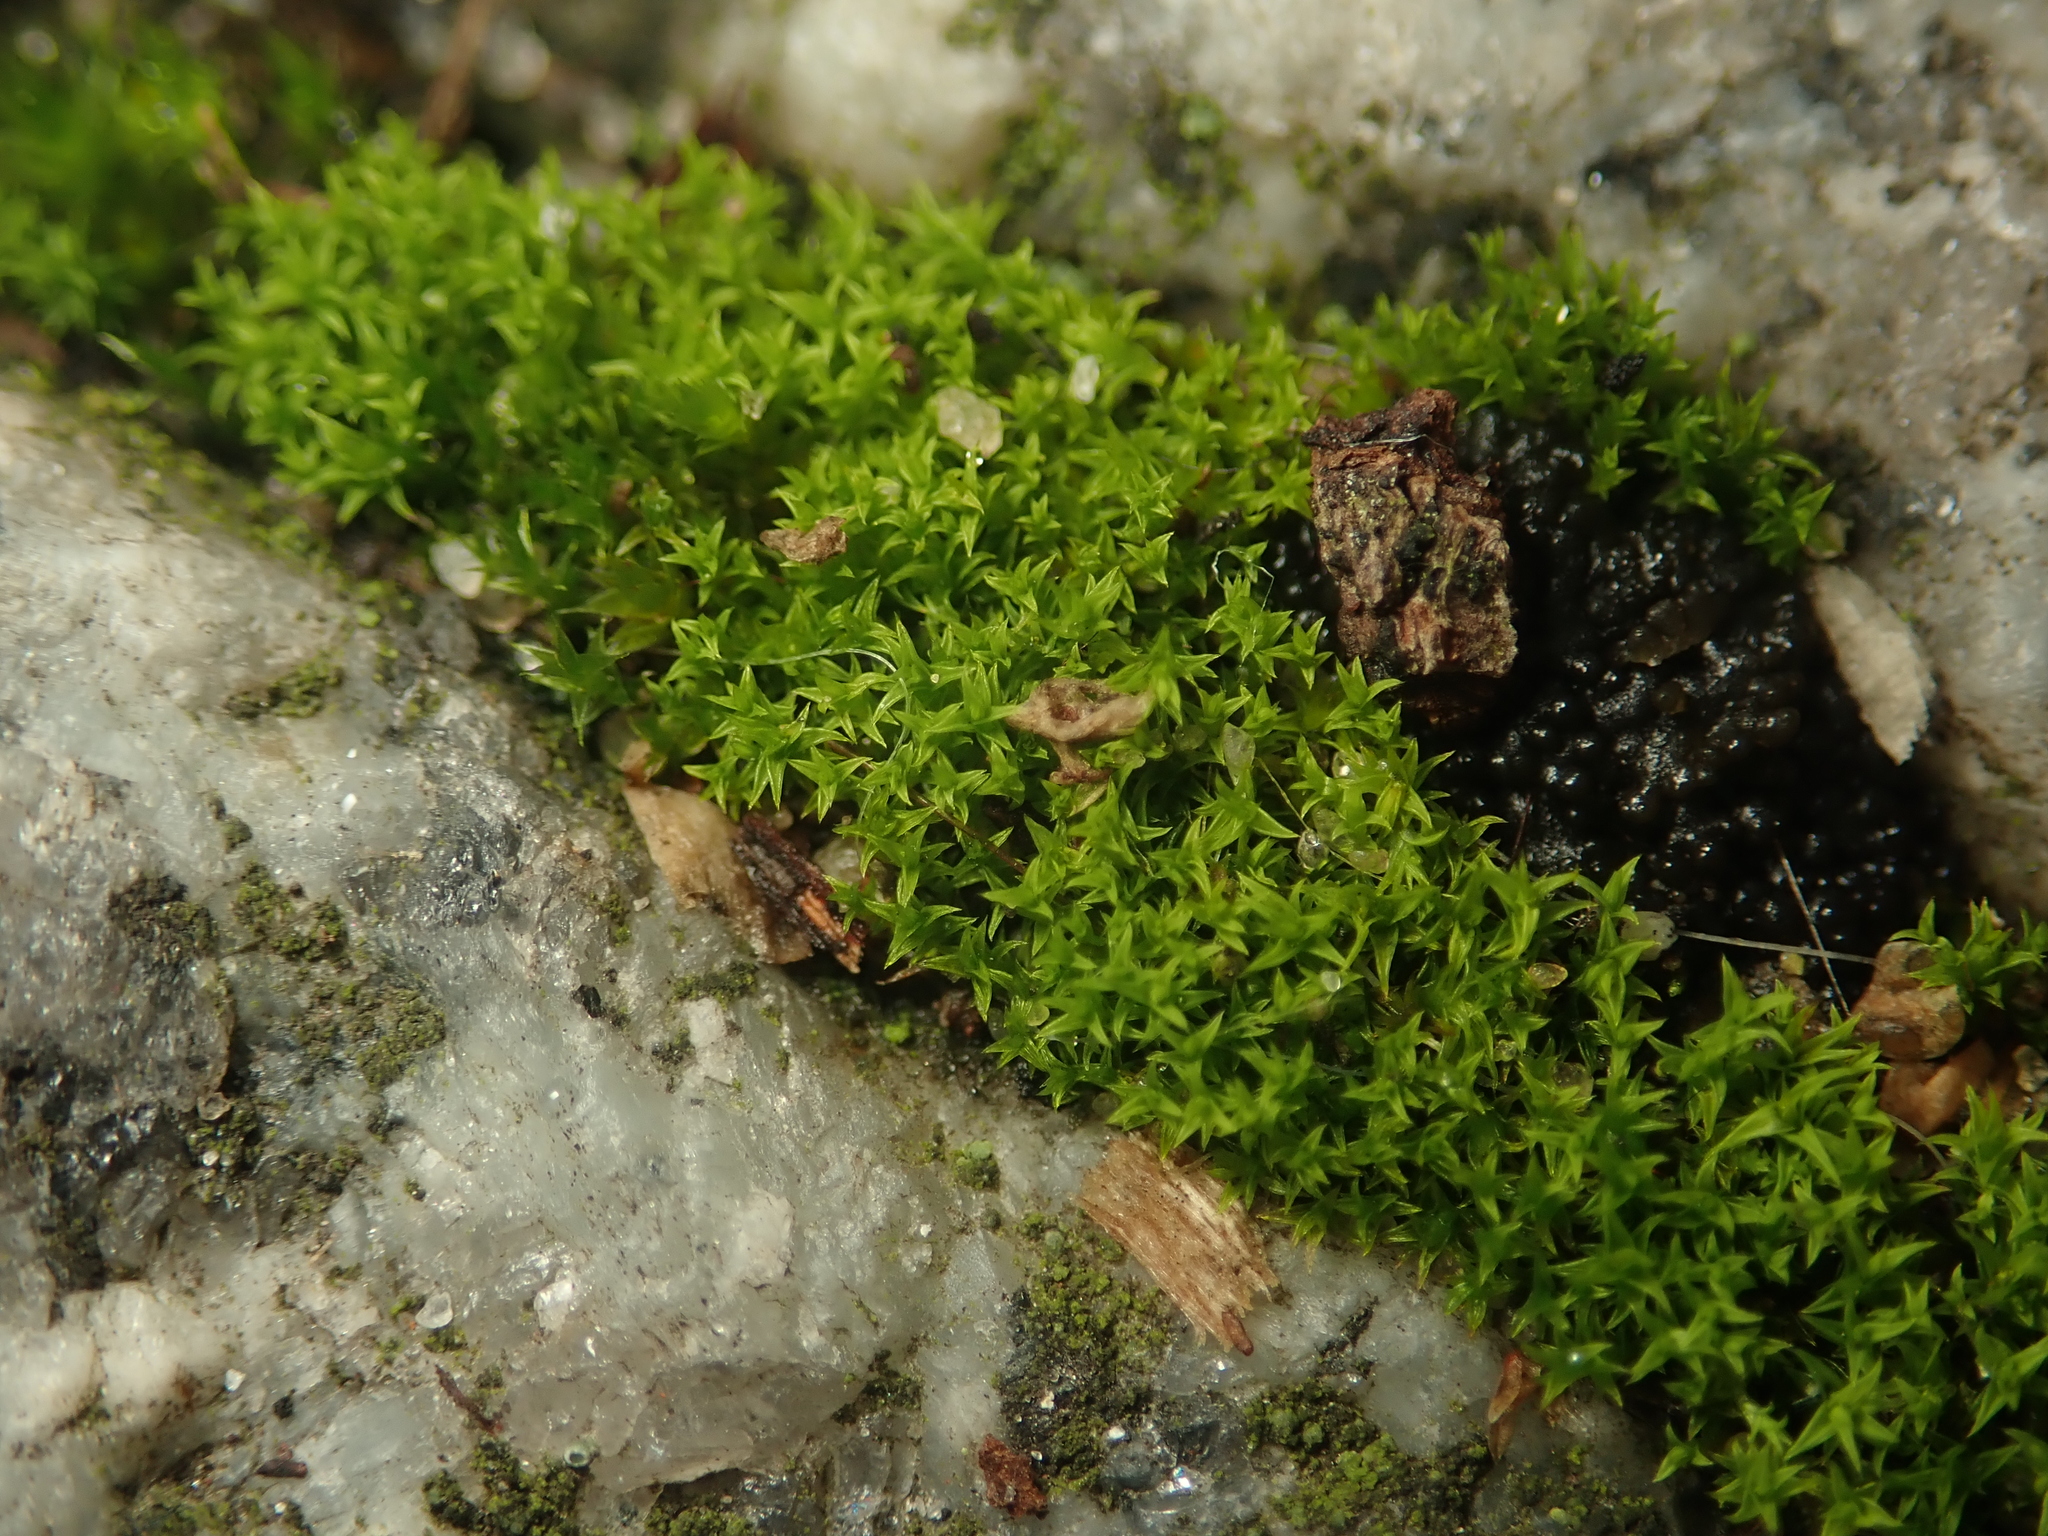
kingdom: Plantae
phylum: Bryophyta
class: Bryopsida
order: Pottiales
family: Pottiaceae
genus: Barbula
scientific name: Barbula unguiculata
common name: Prickly beard moss
